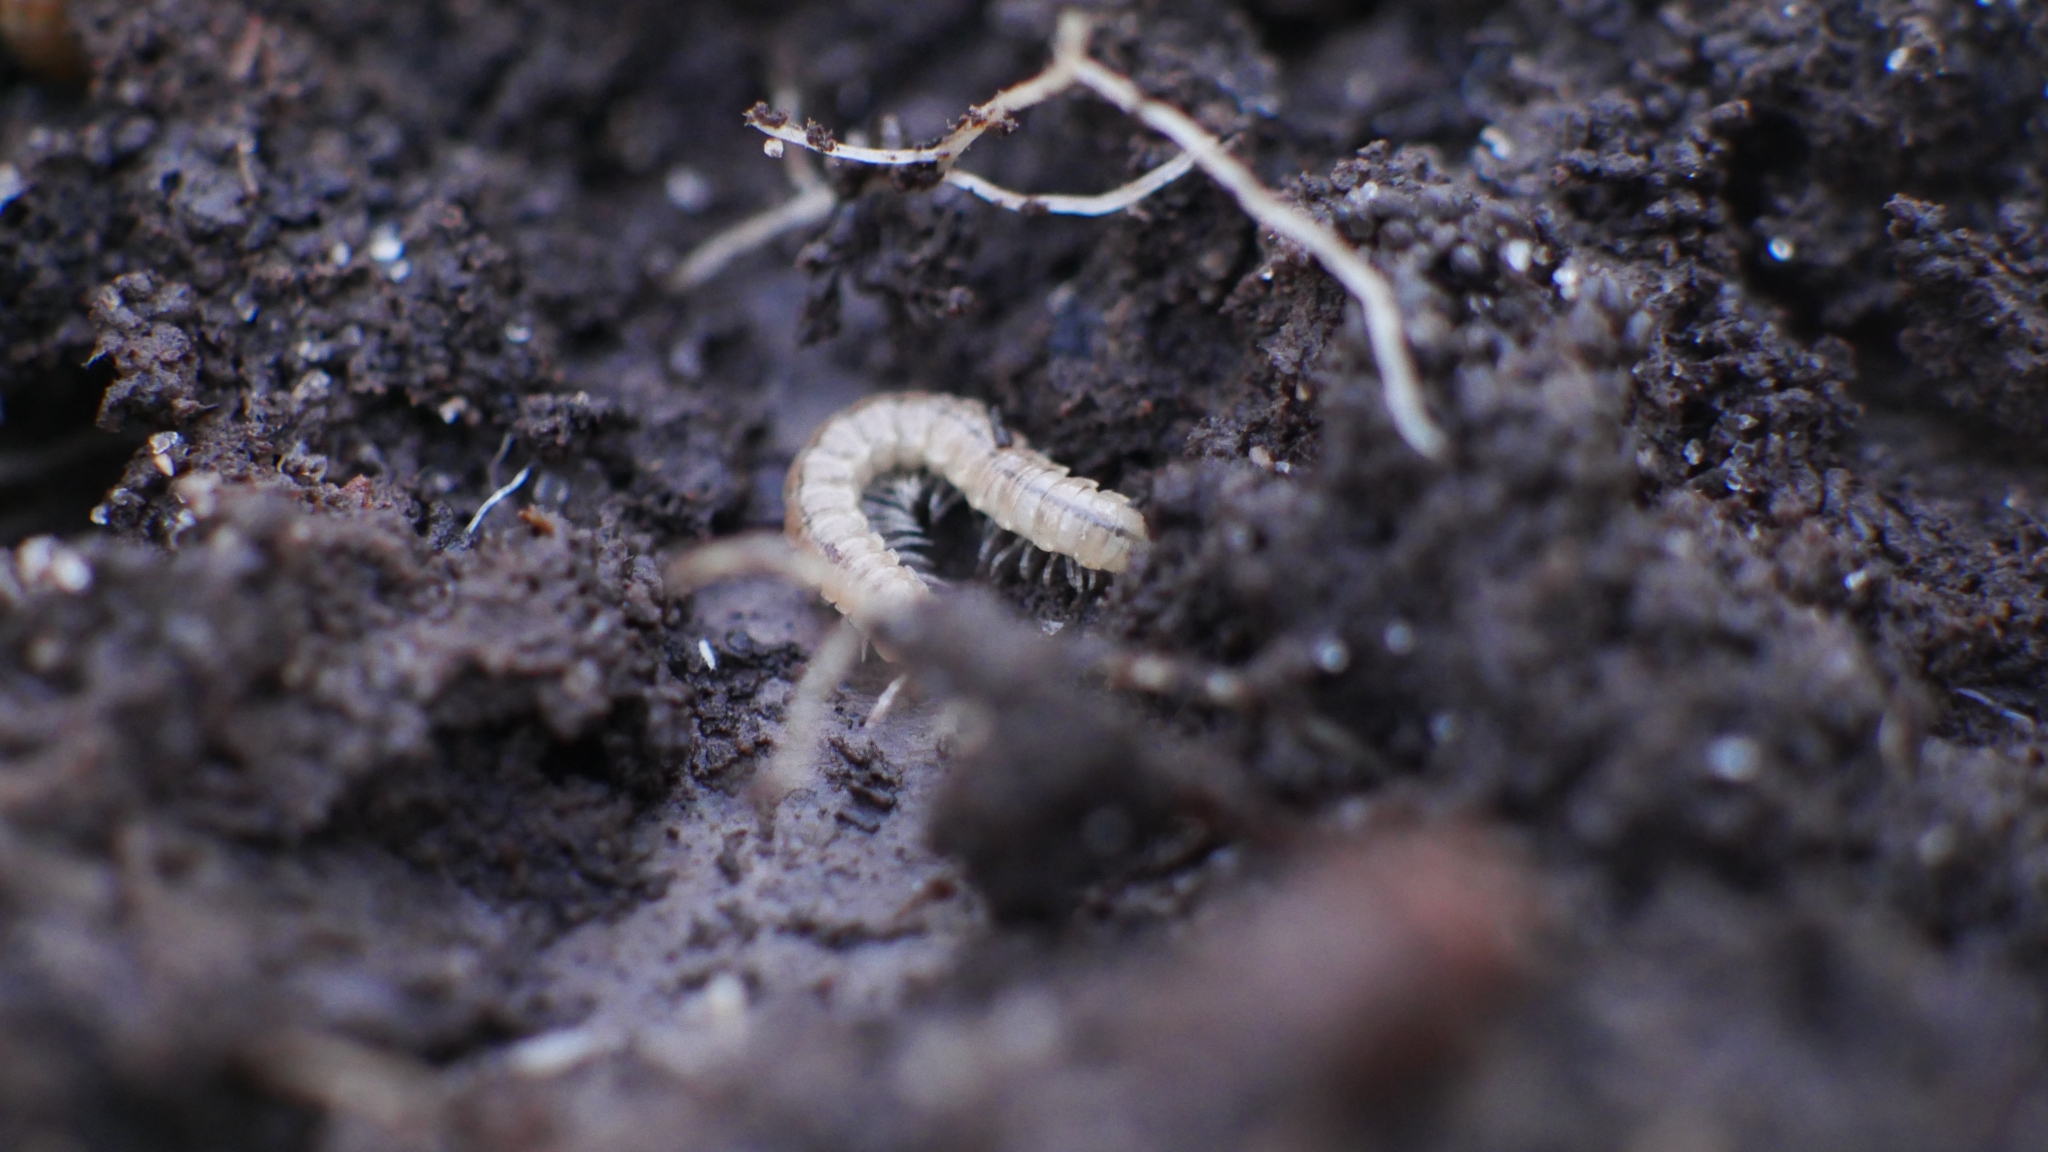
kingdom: Animalia
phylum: Arthropoda
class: Diplopoda
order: Polydesmida
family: Paradoxosomatidae
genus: Oxidus
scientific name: Oxidus gracilis
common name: Greenhouse millipede
